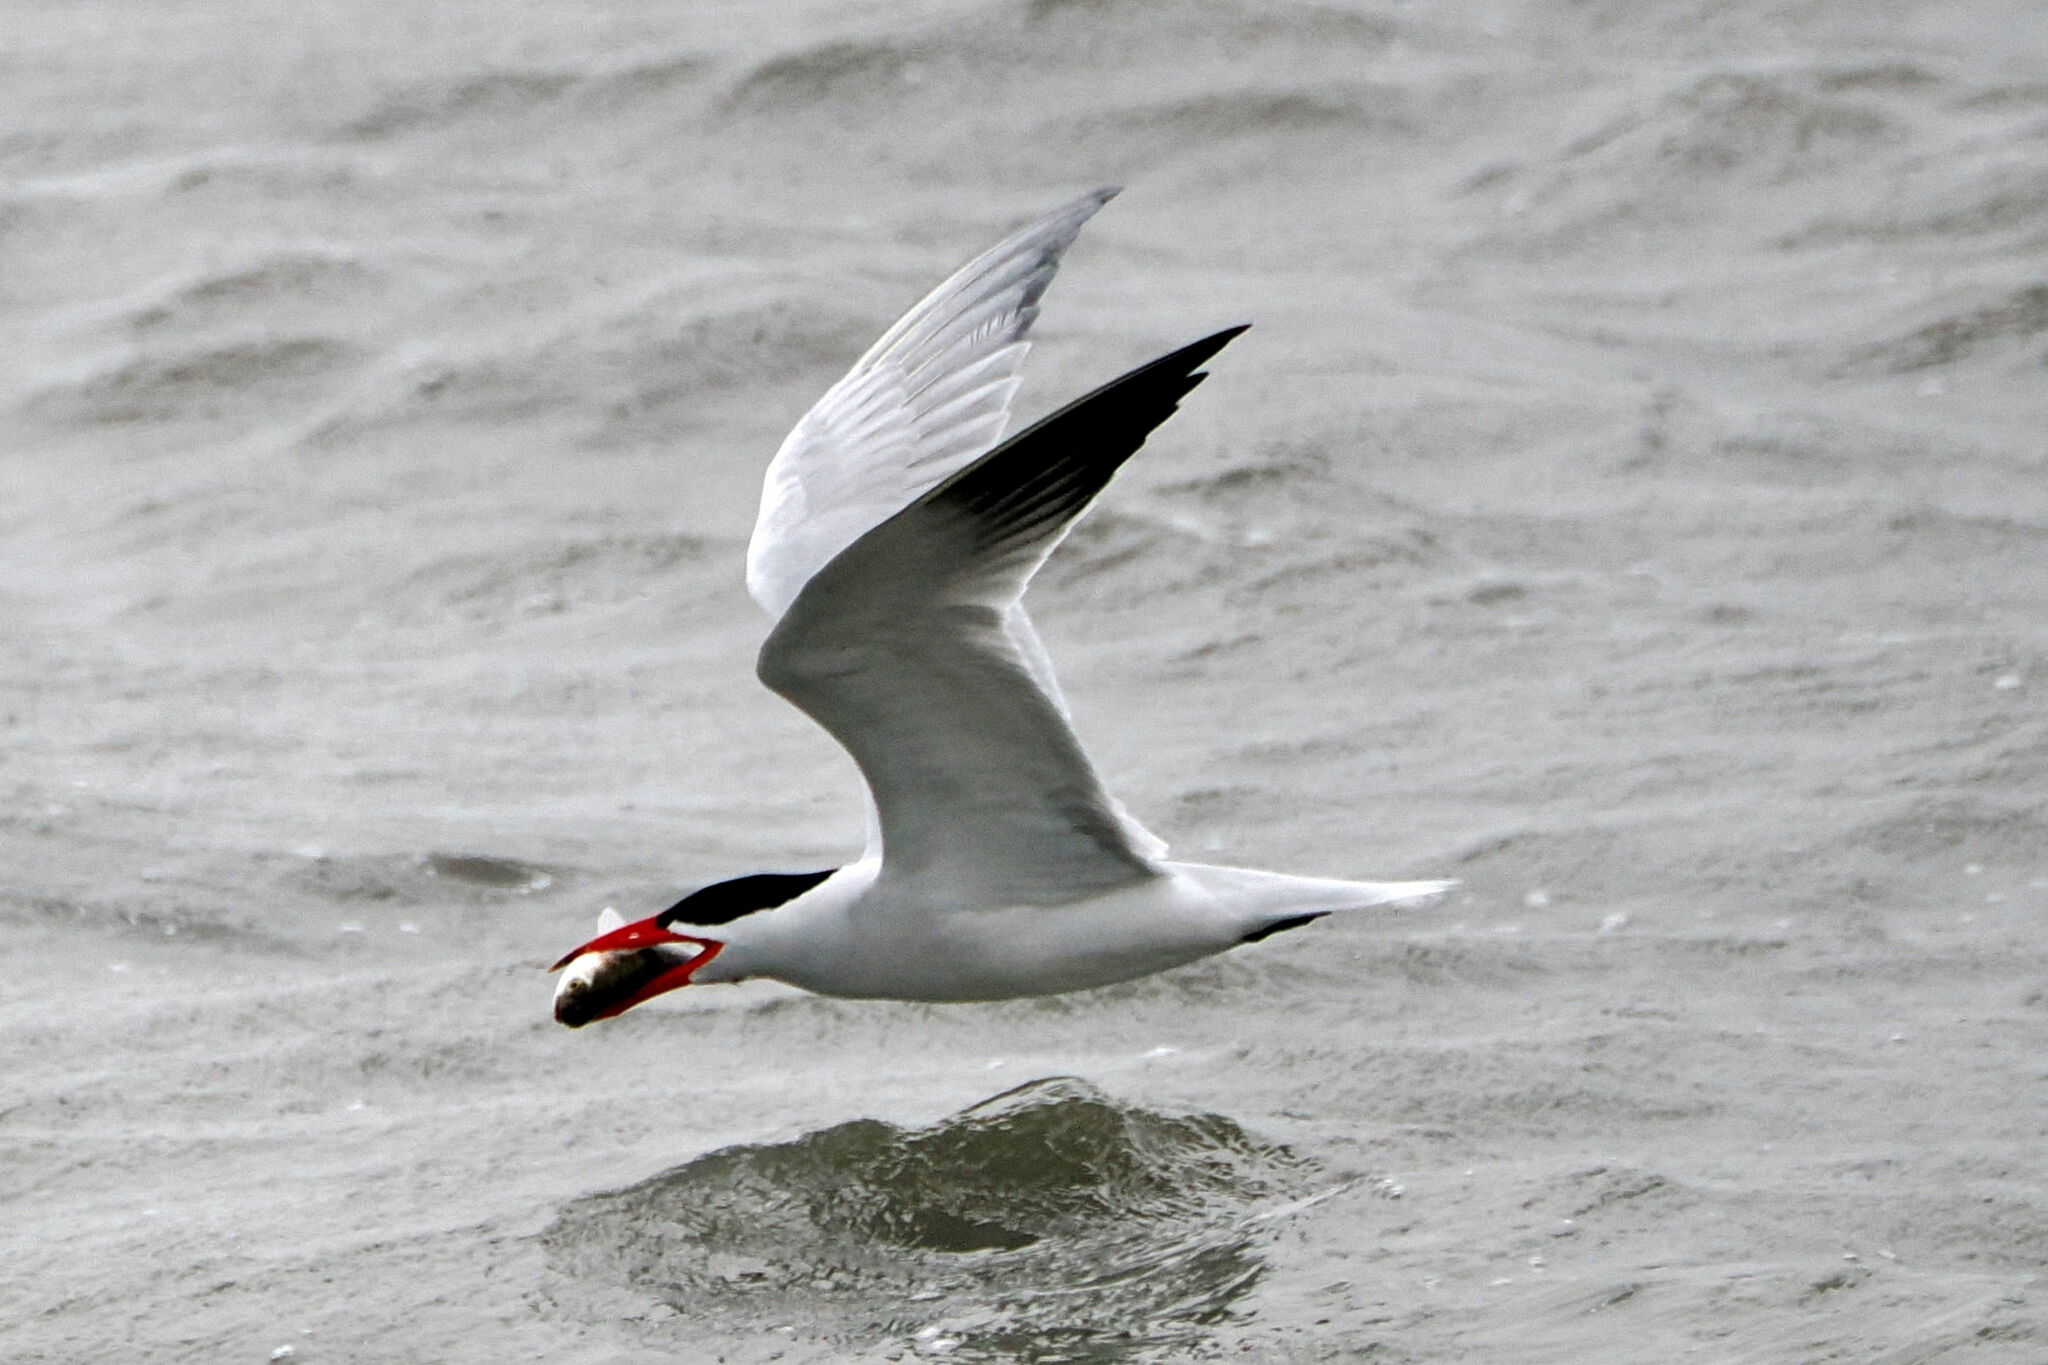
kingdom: Animalia
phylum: Chordata
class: Aves
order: Charadriiformes
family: Laridae
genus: Hydroprogne
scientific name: Hydroprogne caspia
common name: Caspian tern
